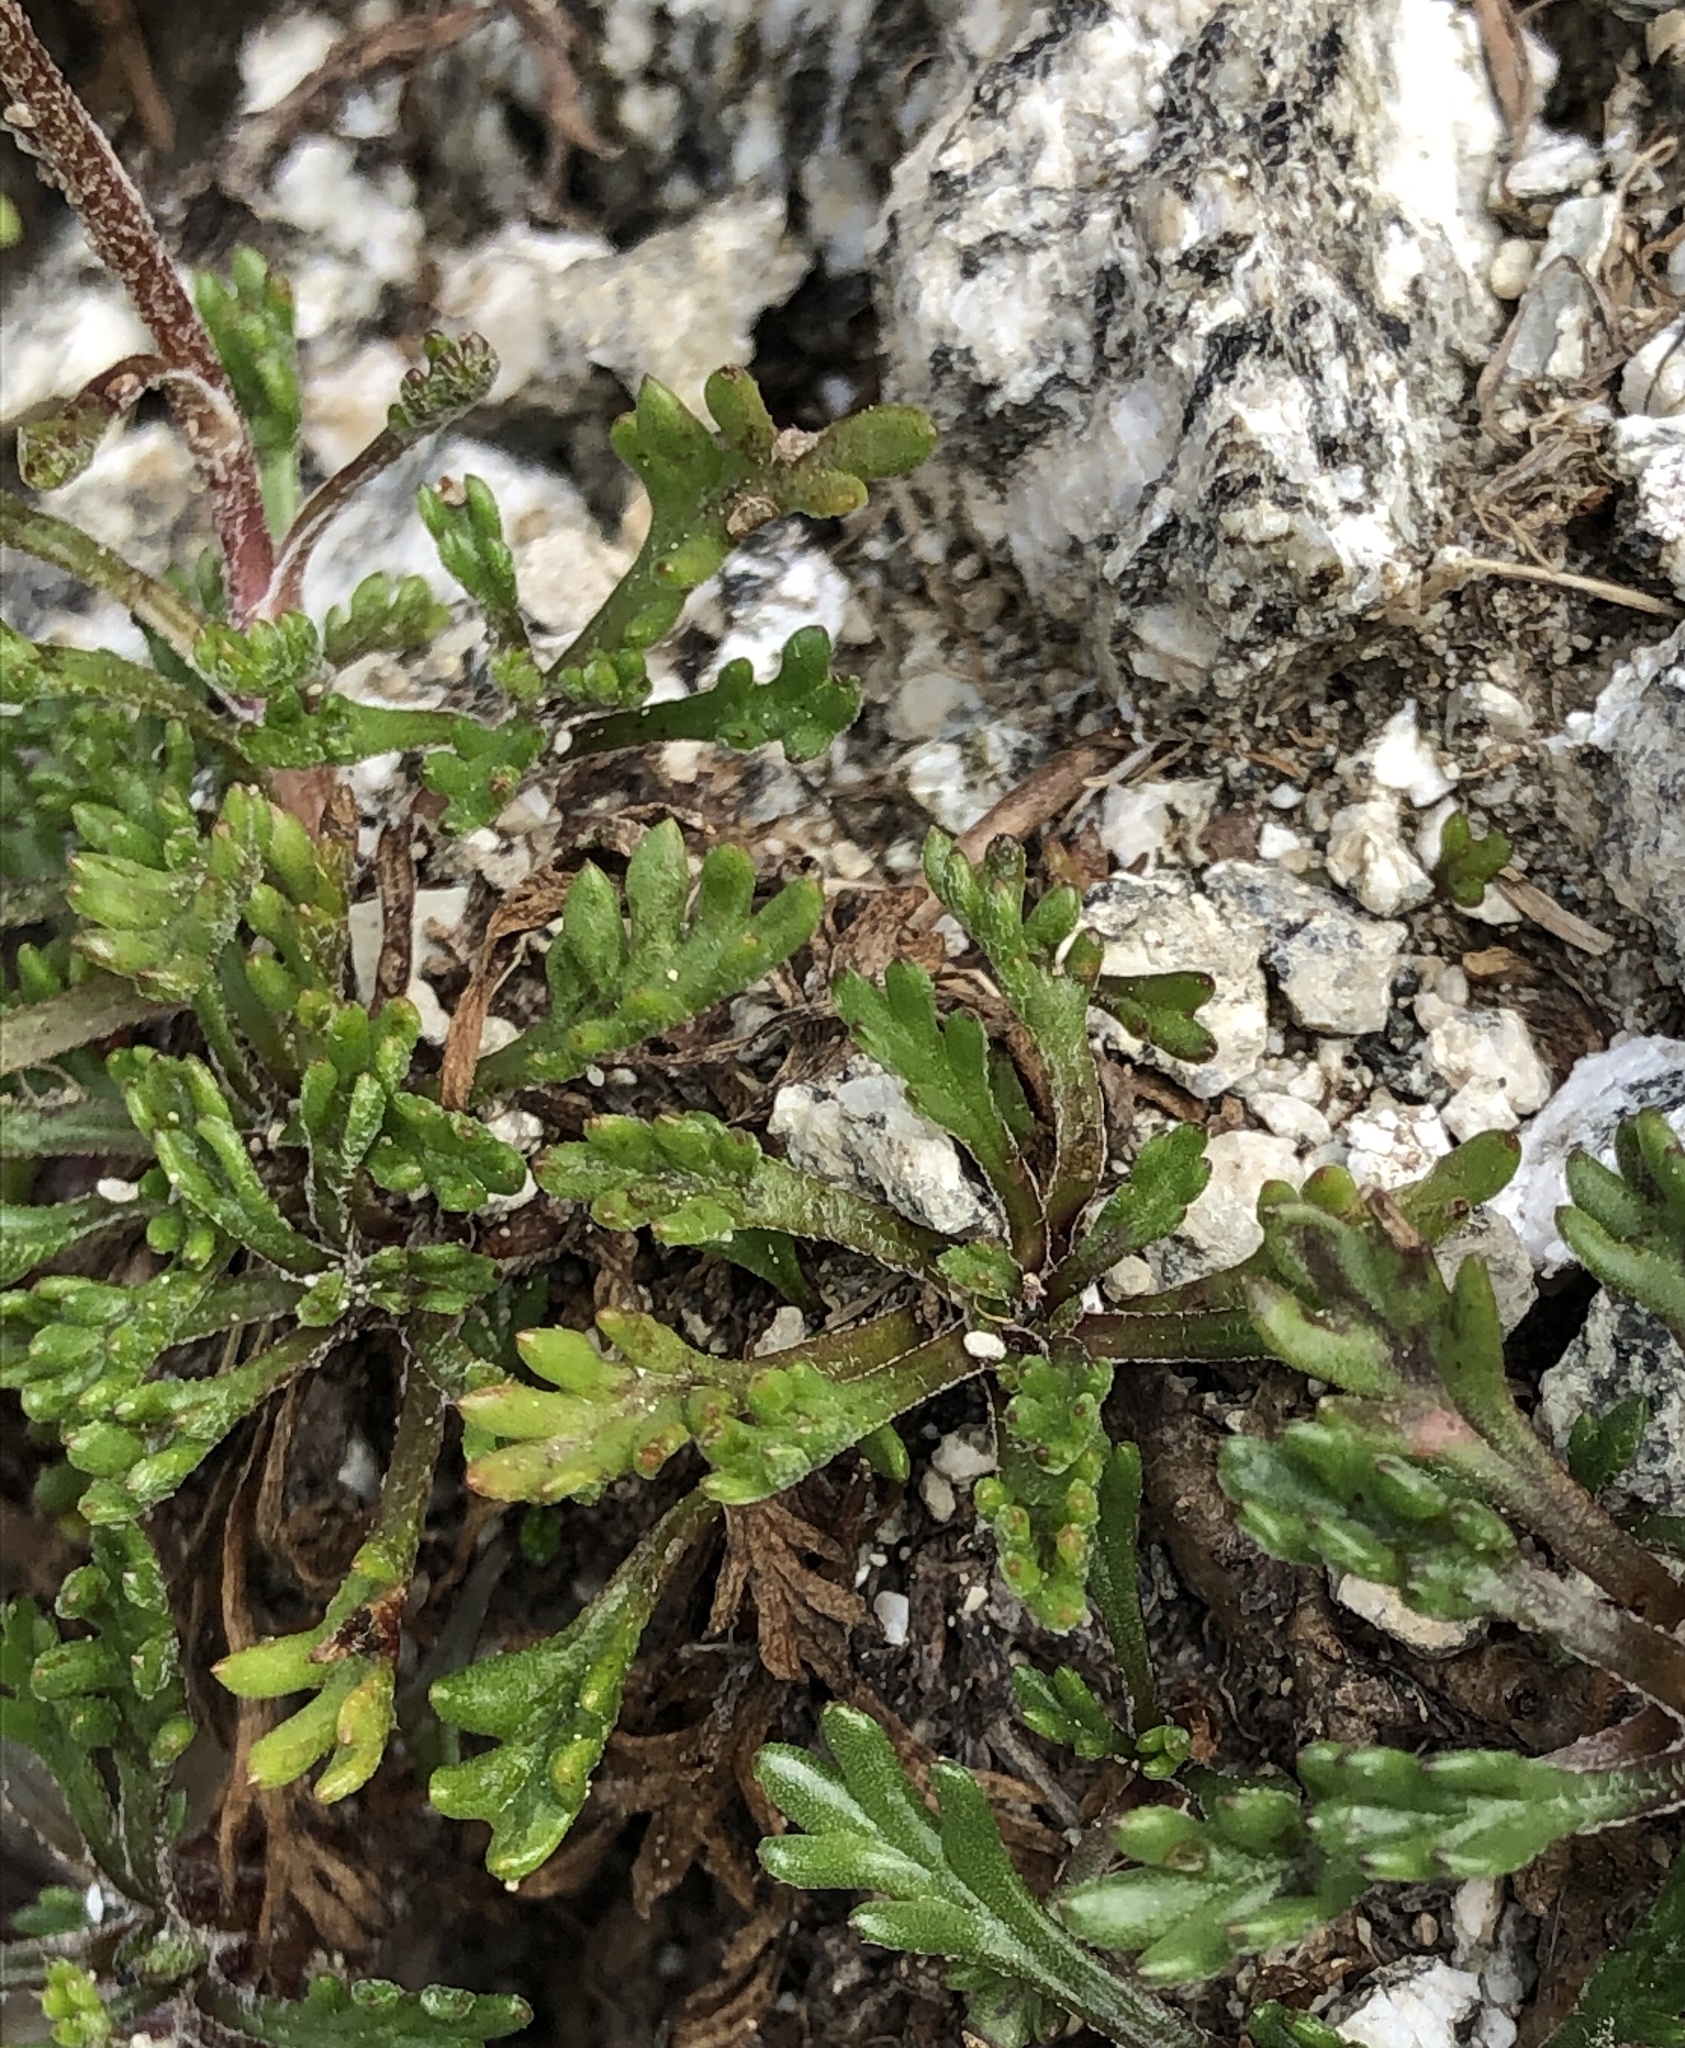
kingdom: Plantae
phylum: Tracheophyta
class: Magnoliopsida
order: Asterales
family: Asteraceae
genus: Leucanthemopsis
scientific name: Leucanthemopsis alpina
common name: Alpine moon daisy
